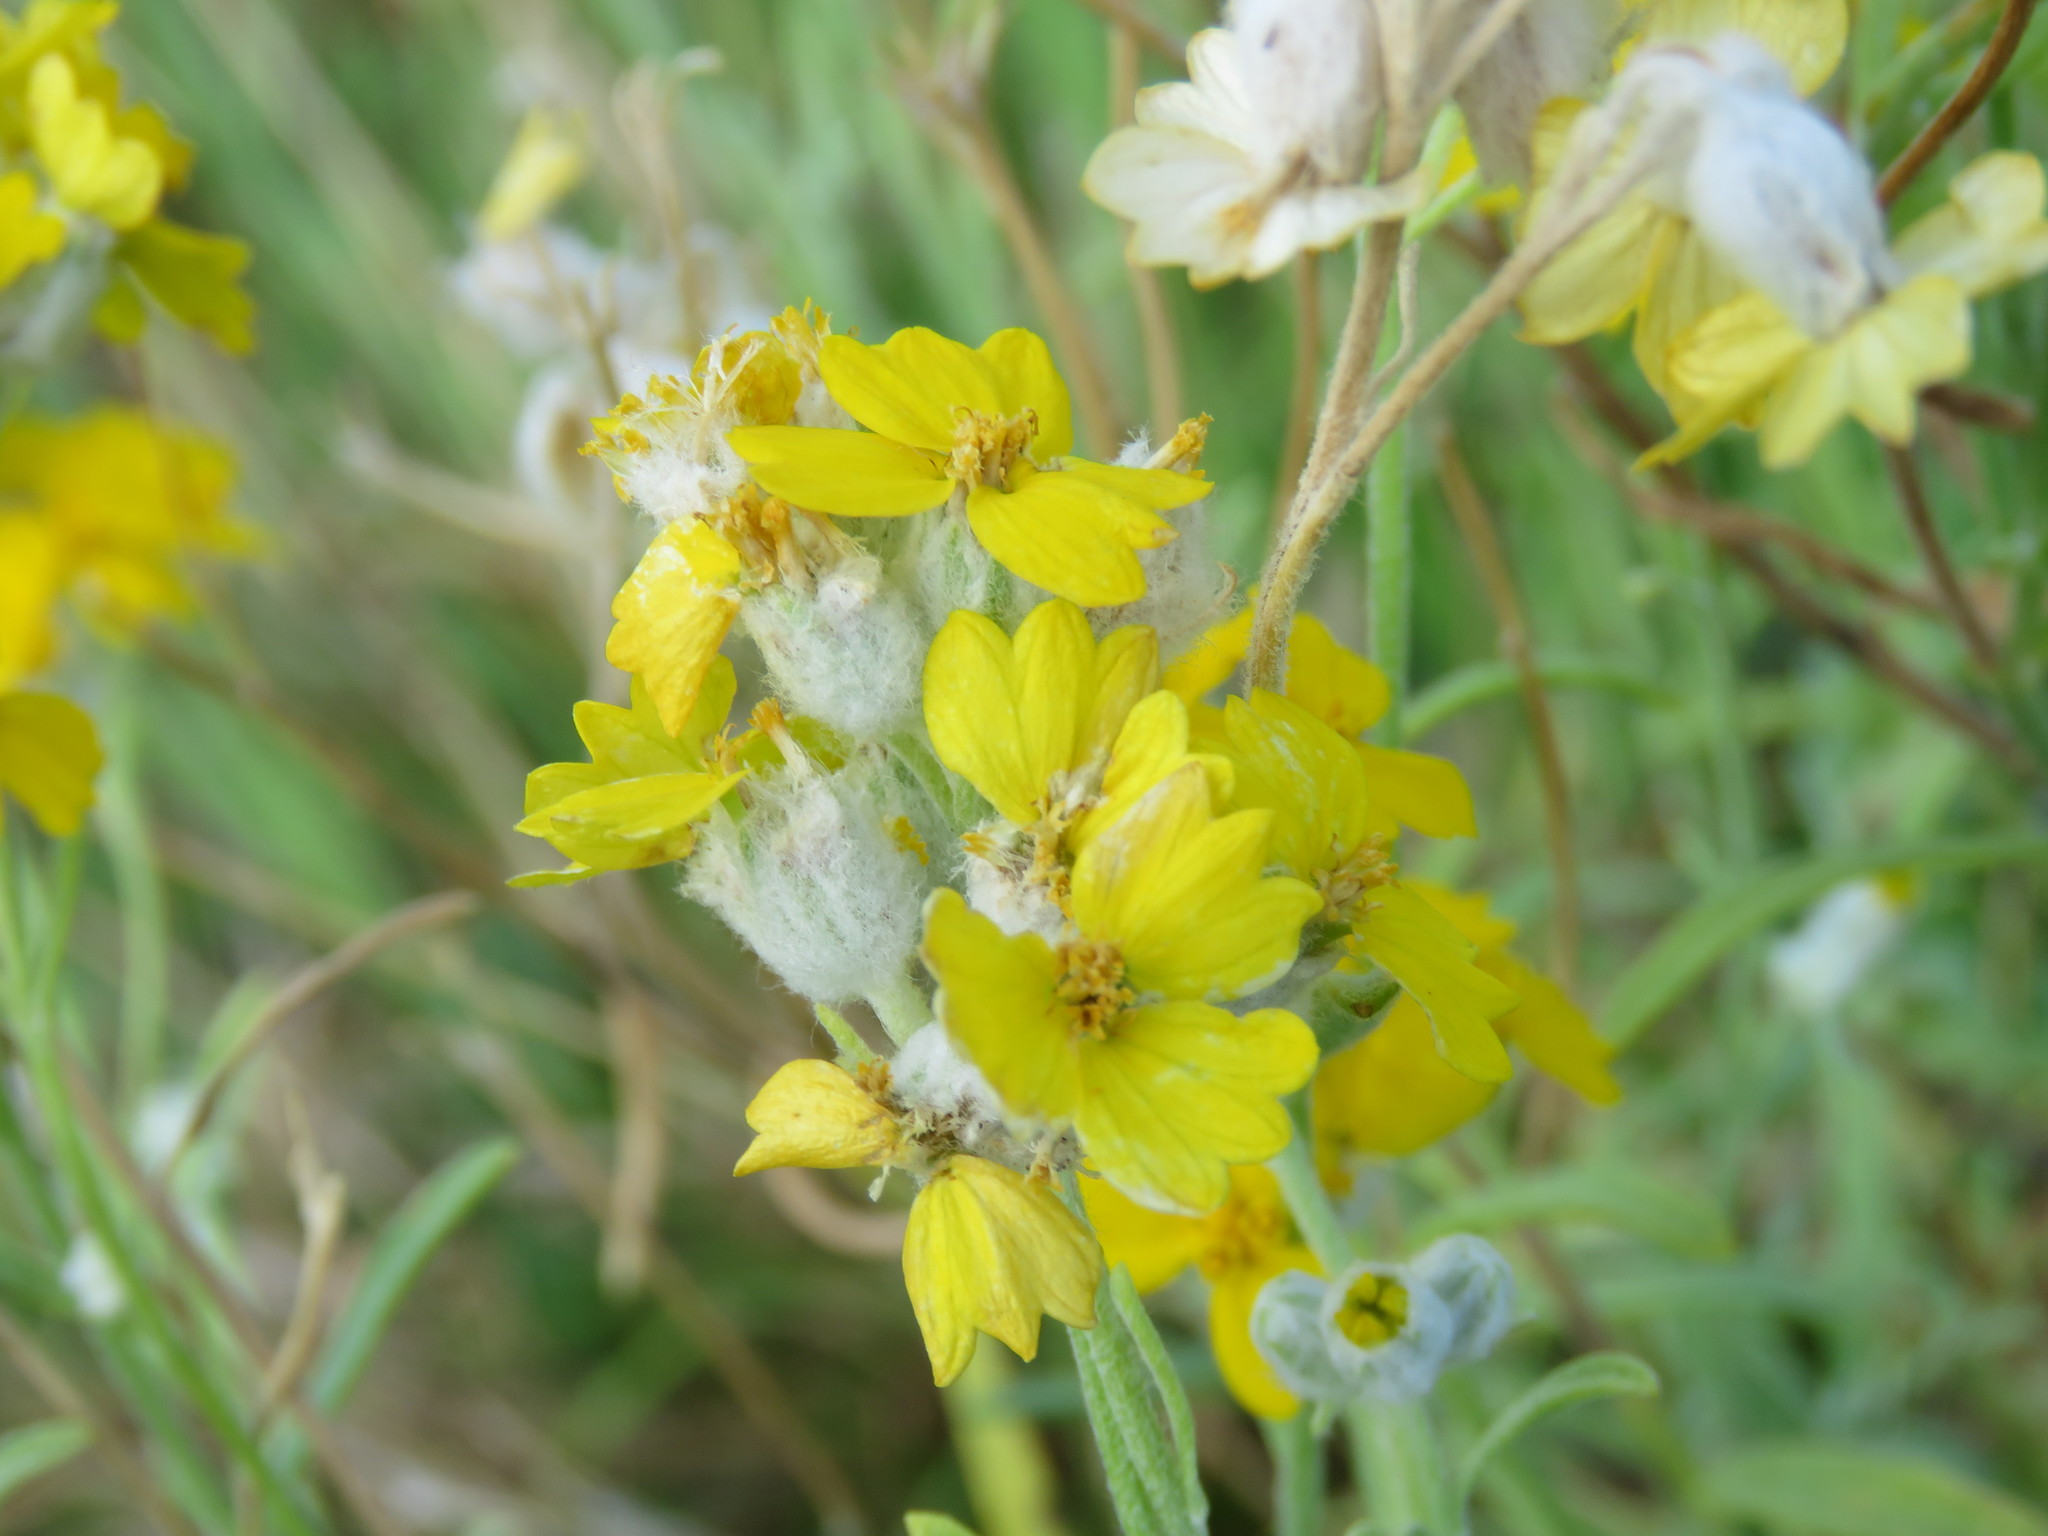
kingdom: Plantae
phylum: Tracheophyta
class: Magnoliopsida
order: Asterales
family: Asteraceae
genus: Psilostrophe
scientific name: Psilostrophe gnaphalioides
